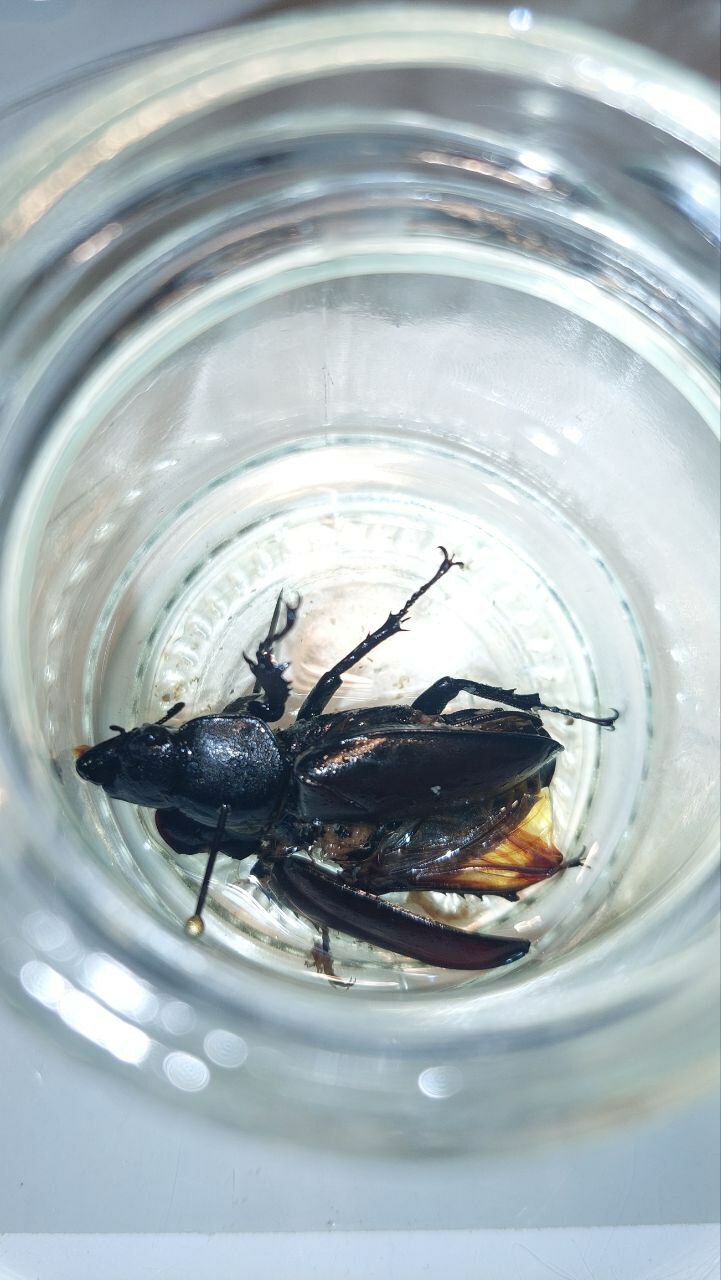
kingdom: Animalia
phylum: Arthropoda
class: Insecta
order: Coleoptera
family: Lucanidae
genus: Lucanus
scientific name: Lucanus cervus
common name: Stag beetle
